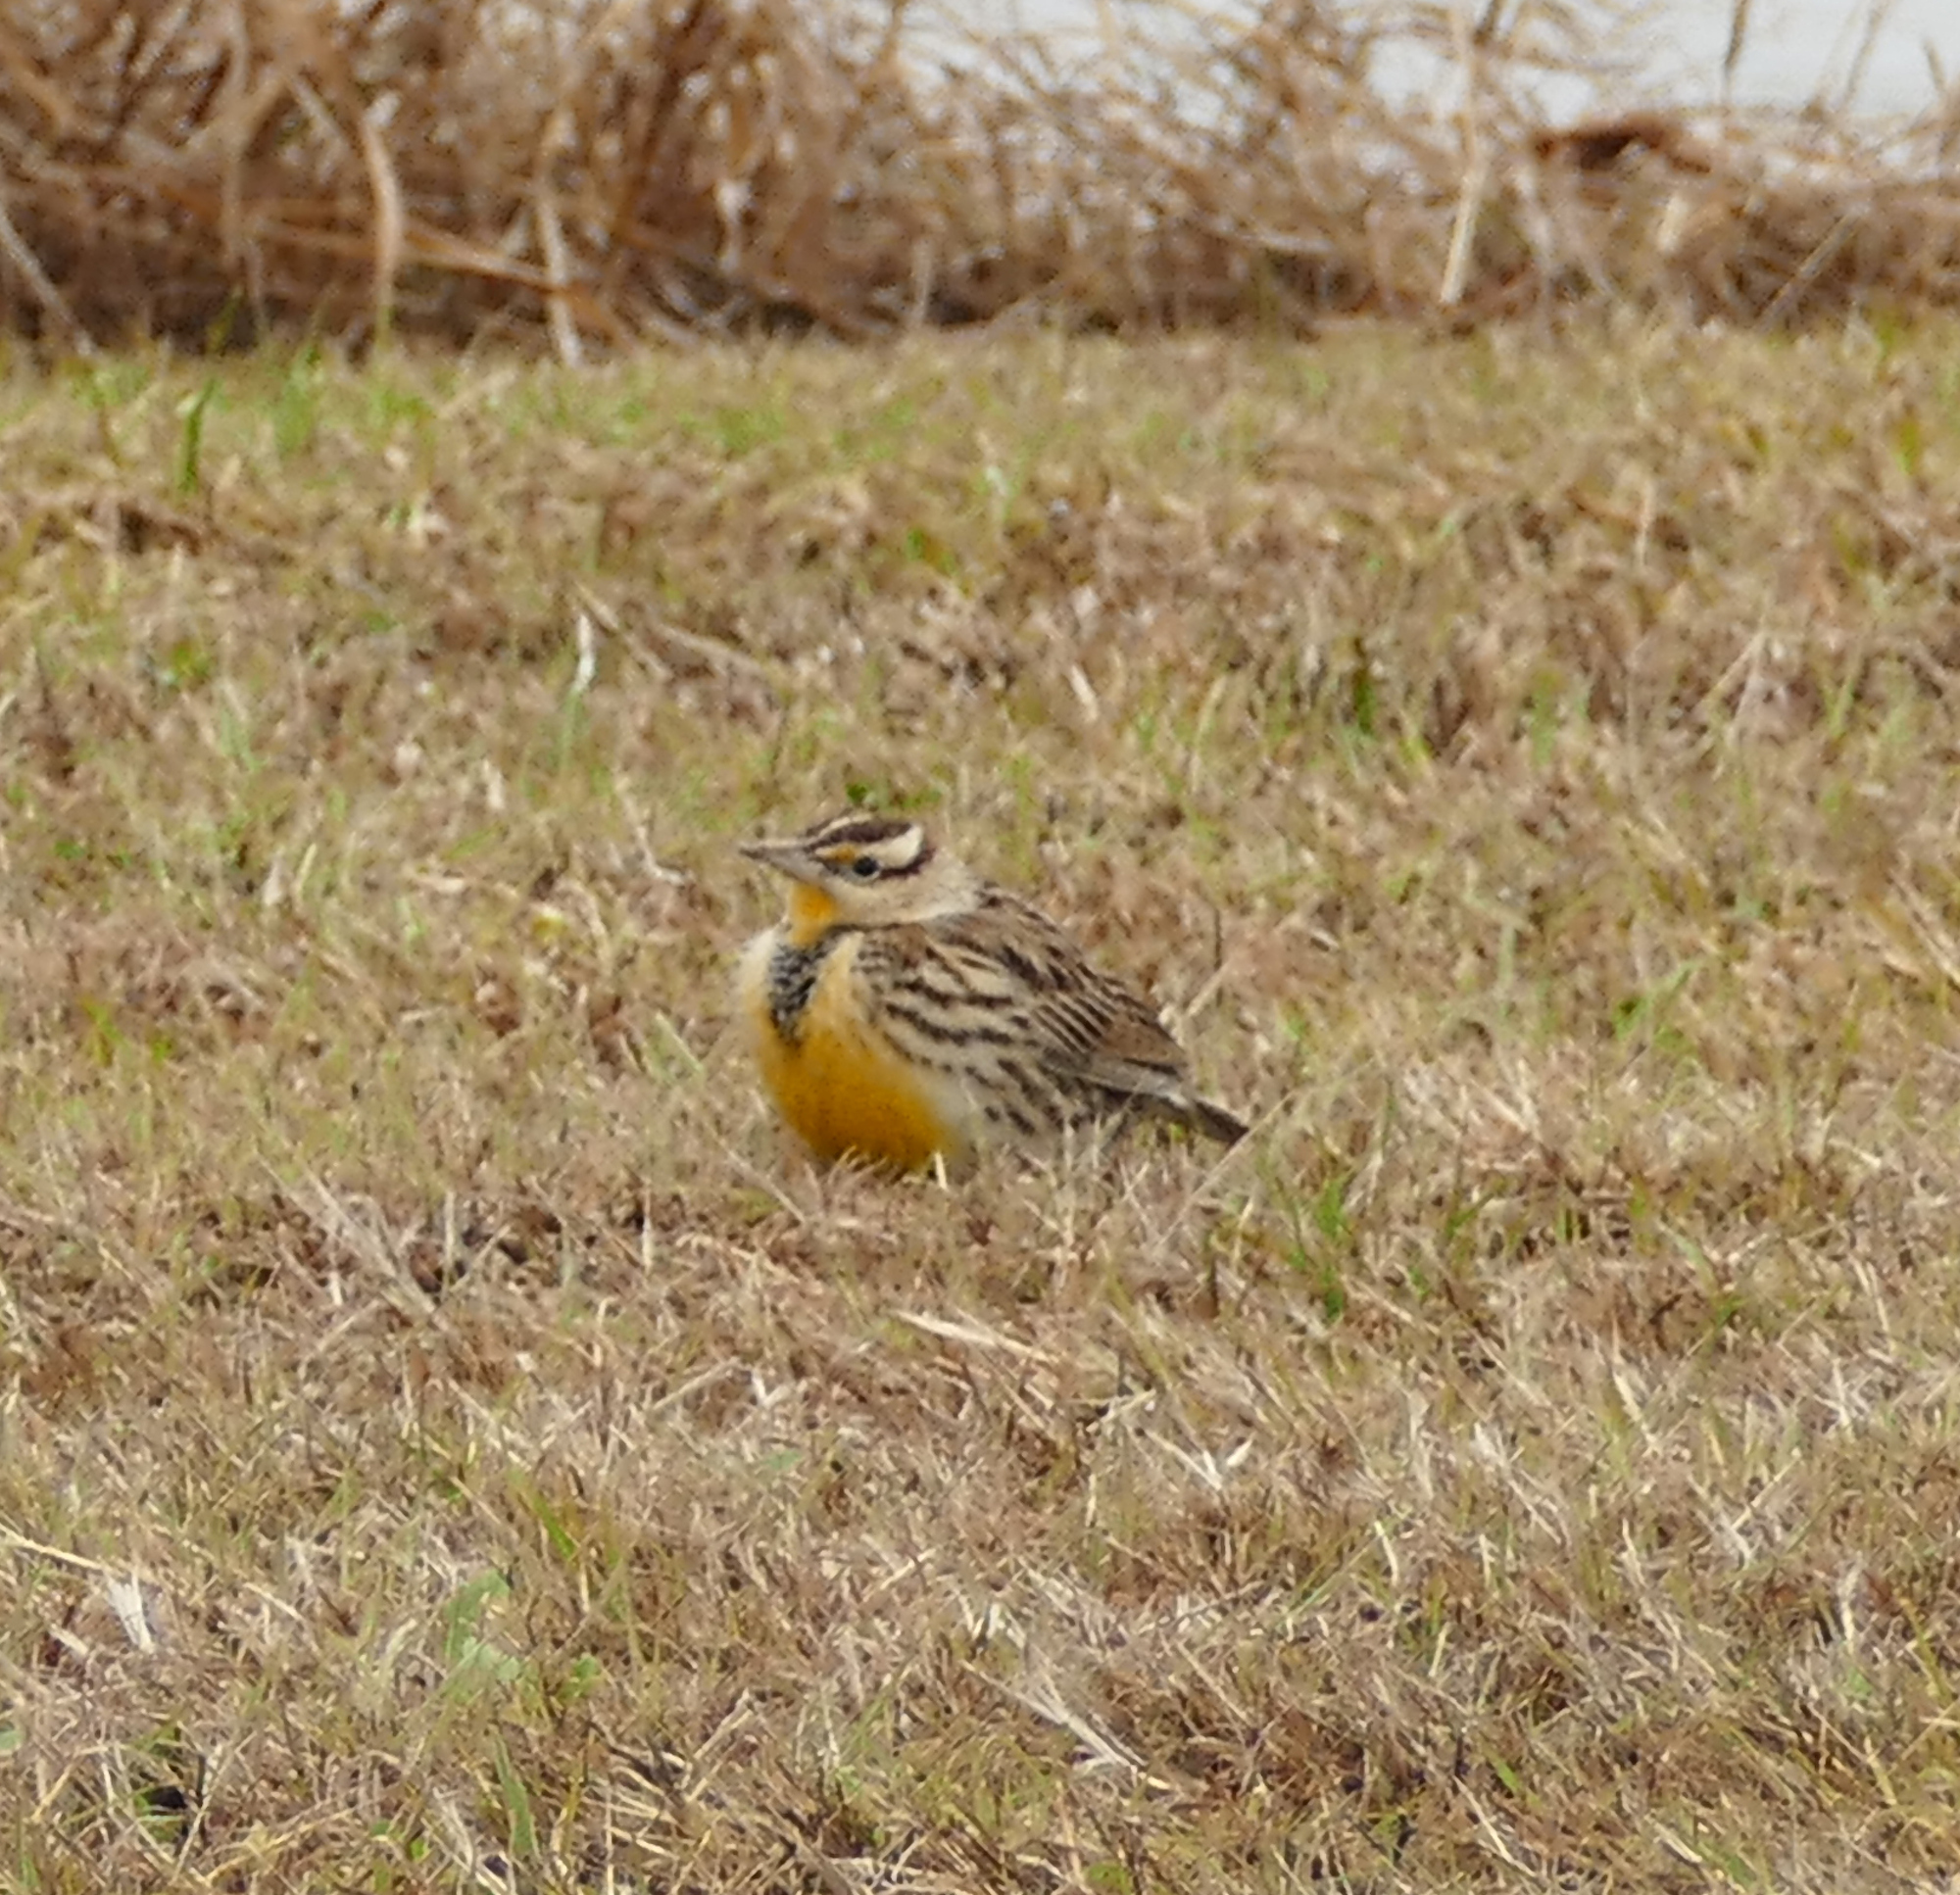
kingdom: Animalia
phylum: Chordata
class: Aves
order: Passeriformes
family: Icteridae
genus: Sturnella
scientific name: Sturnella magna
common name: Eastern meadowlark
